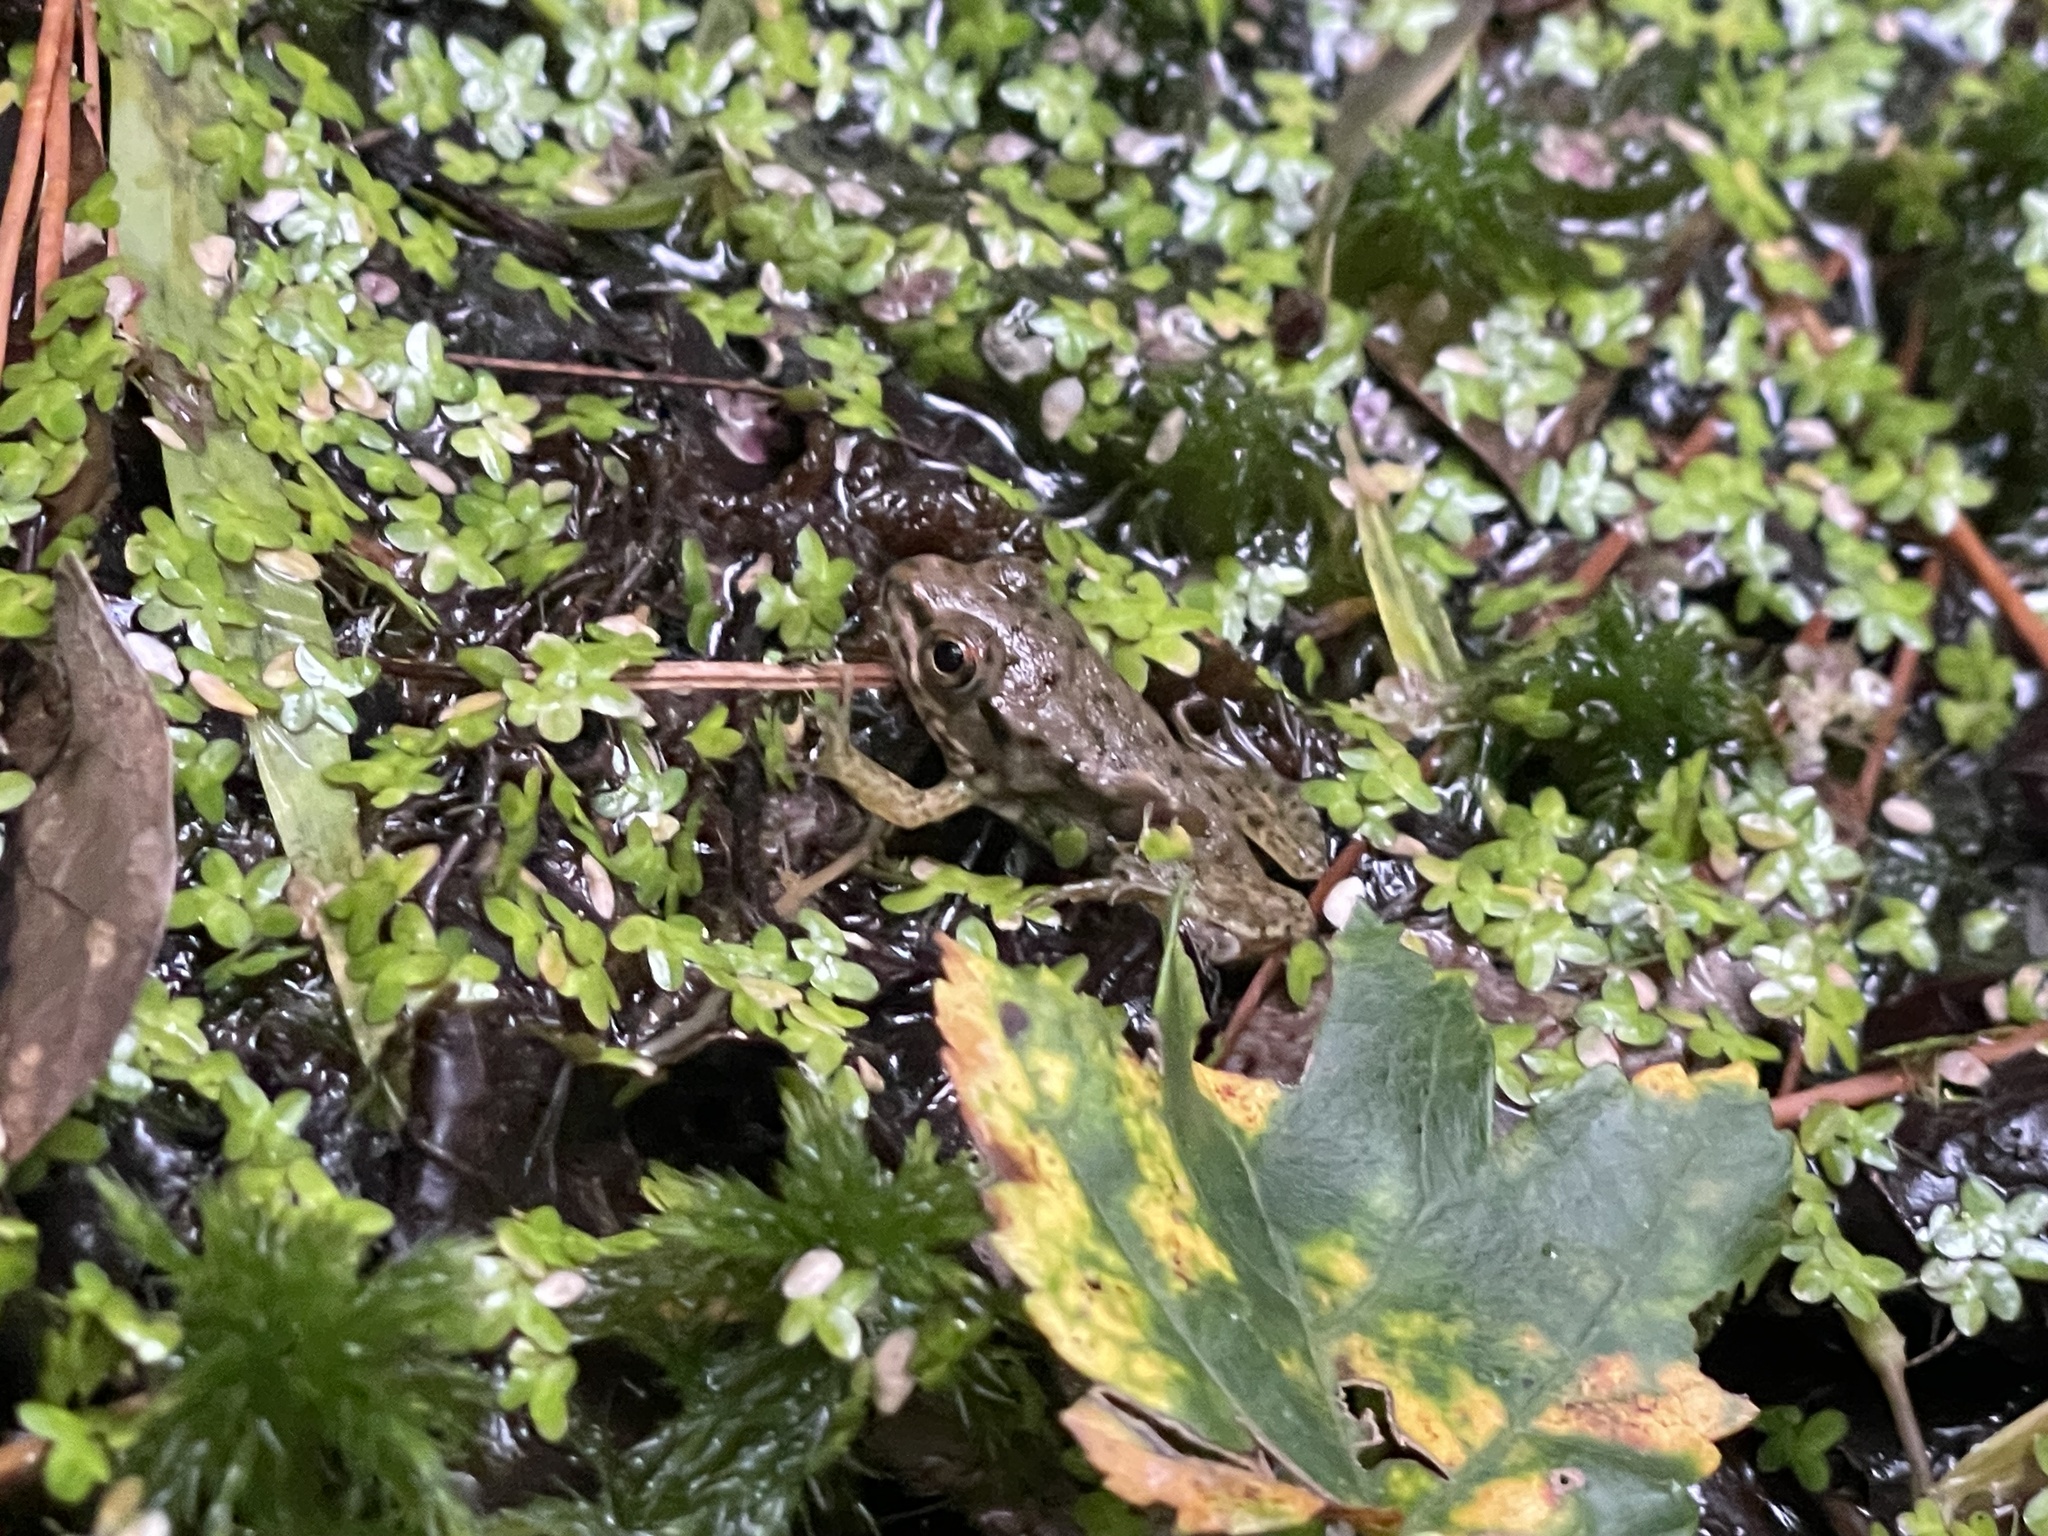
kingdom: Animalia
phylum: Chordata
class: Amphibia
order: Anura
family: Ranidae
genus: Lithobates
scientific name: Lithobates clamitans
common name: Green frog
